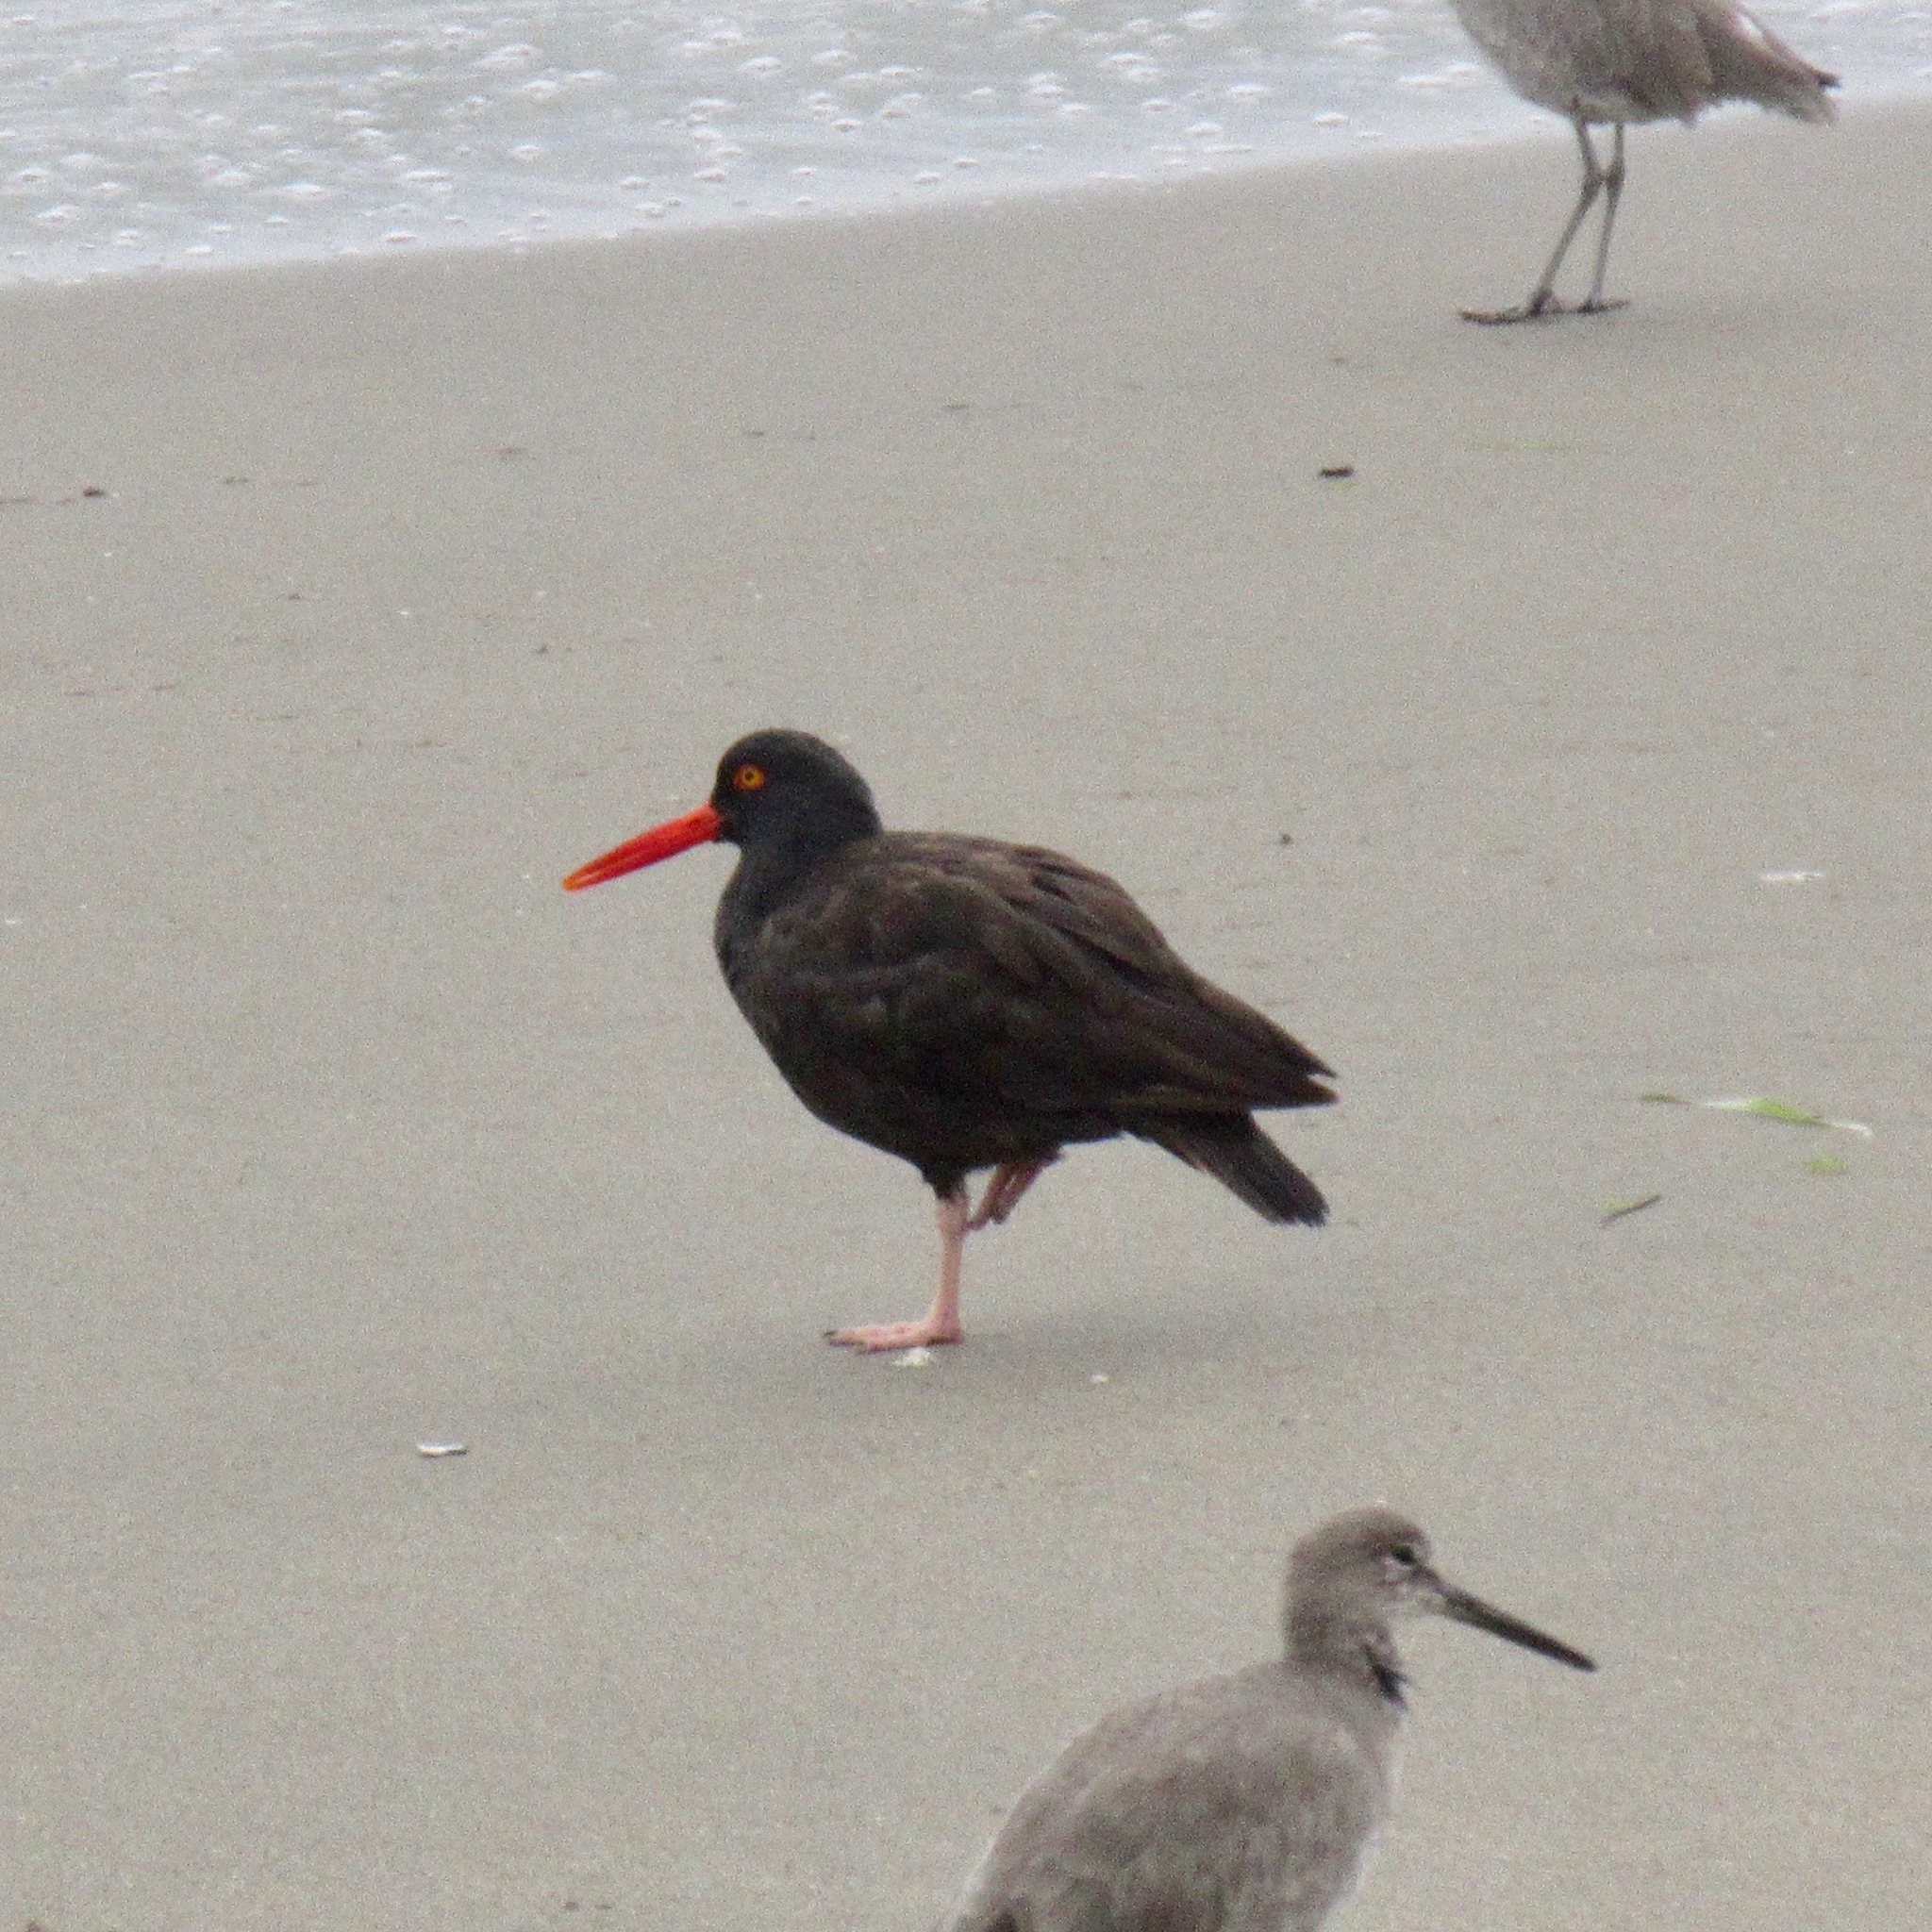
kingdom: Animalia
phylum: Chordata
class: Aves
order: Charadriiformes
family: Haematopodidae
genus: Haematopus
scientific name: Haematopus bachmani
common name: Black oystercatcher
